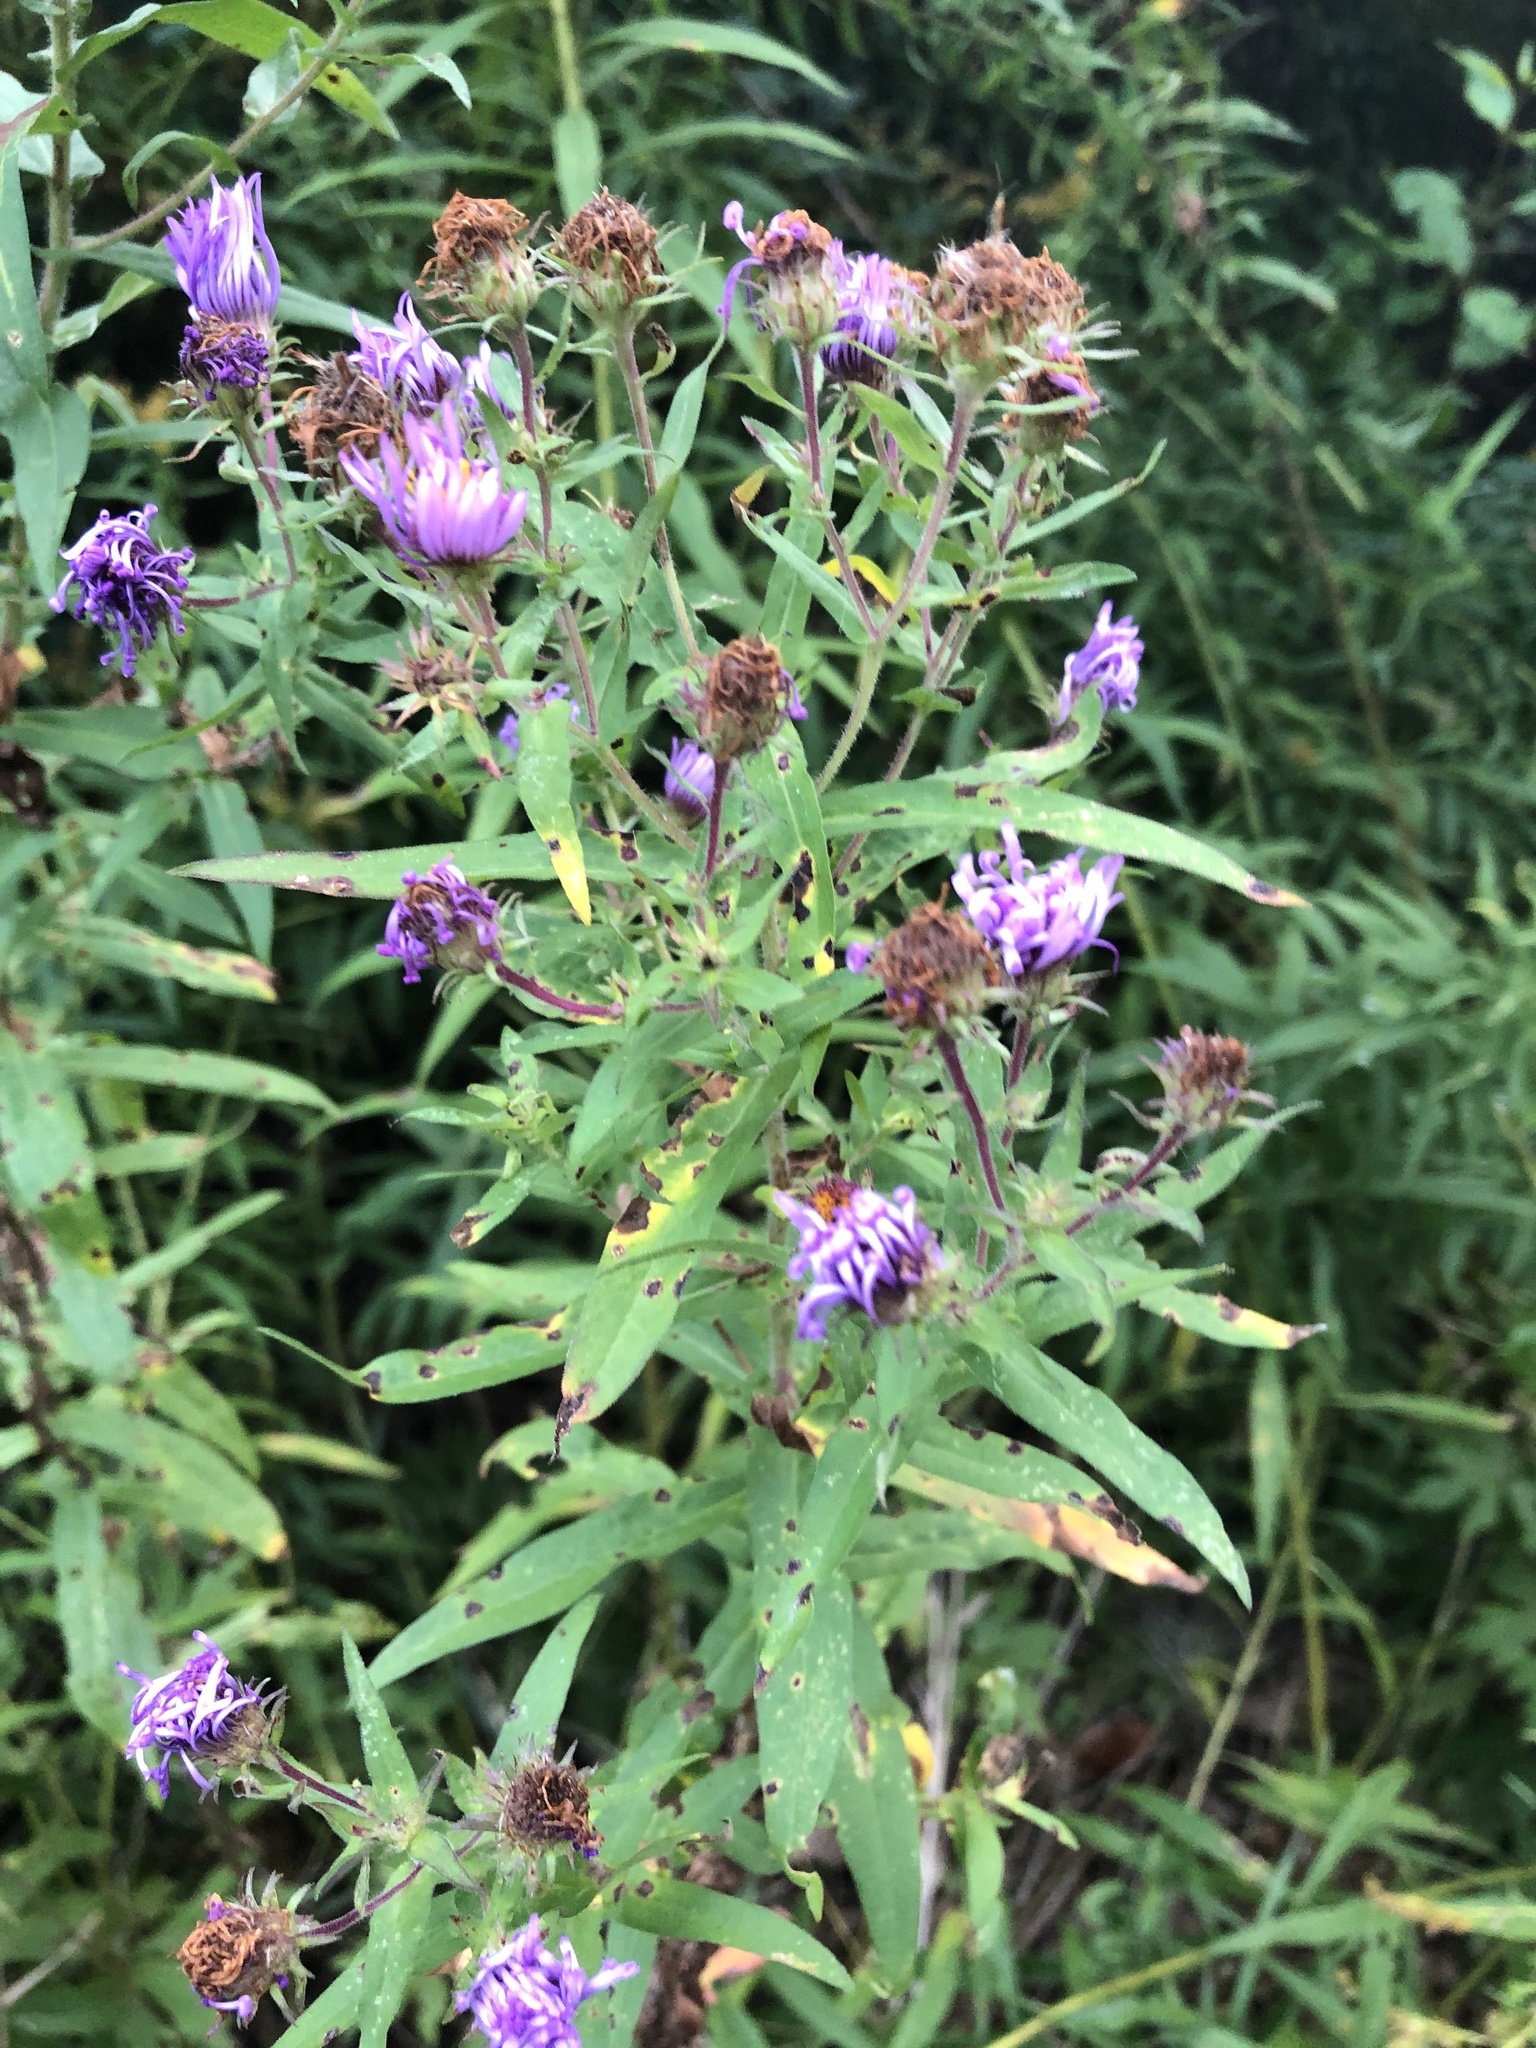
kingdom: Plantae
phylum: Tracheophyta
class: Magnoliopsida
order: Asterales
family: Asteraceae
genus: Symphyotrichum
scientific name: Symphyotrichum novae-angliae
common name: Michaelmas daisy
